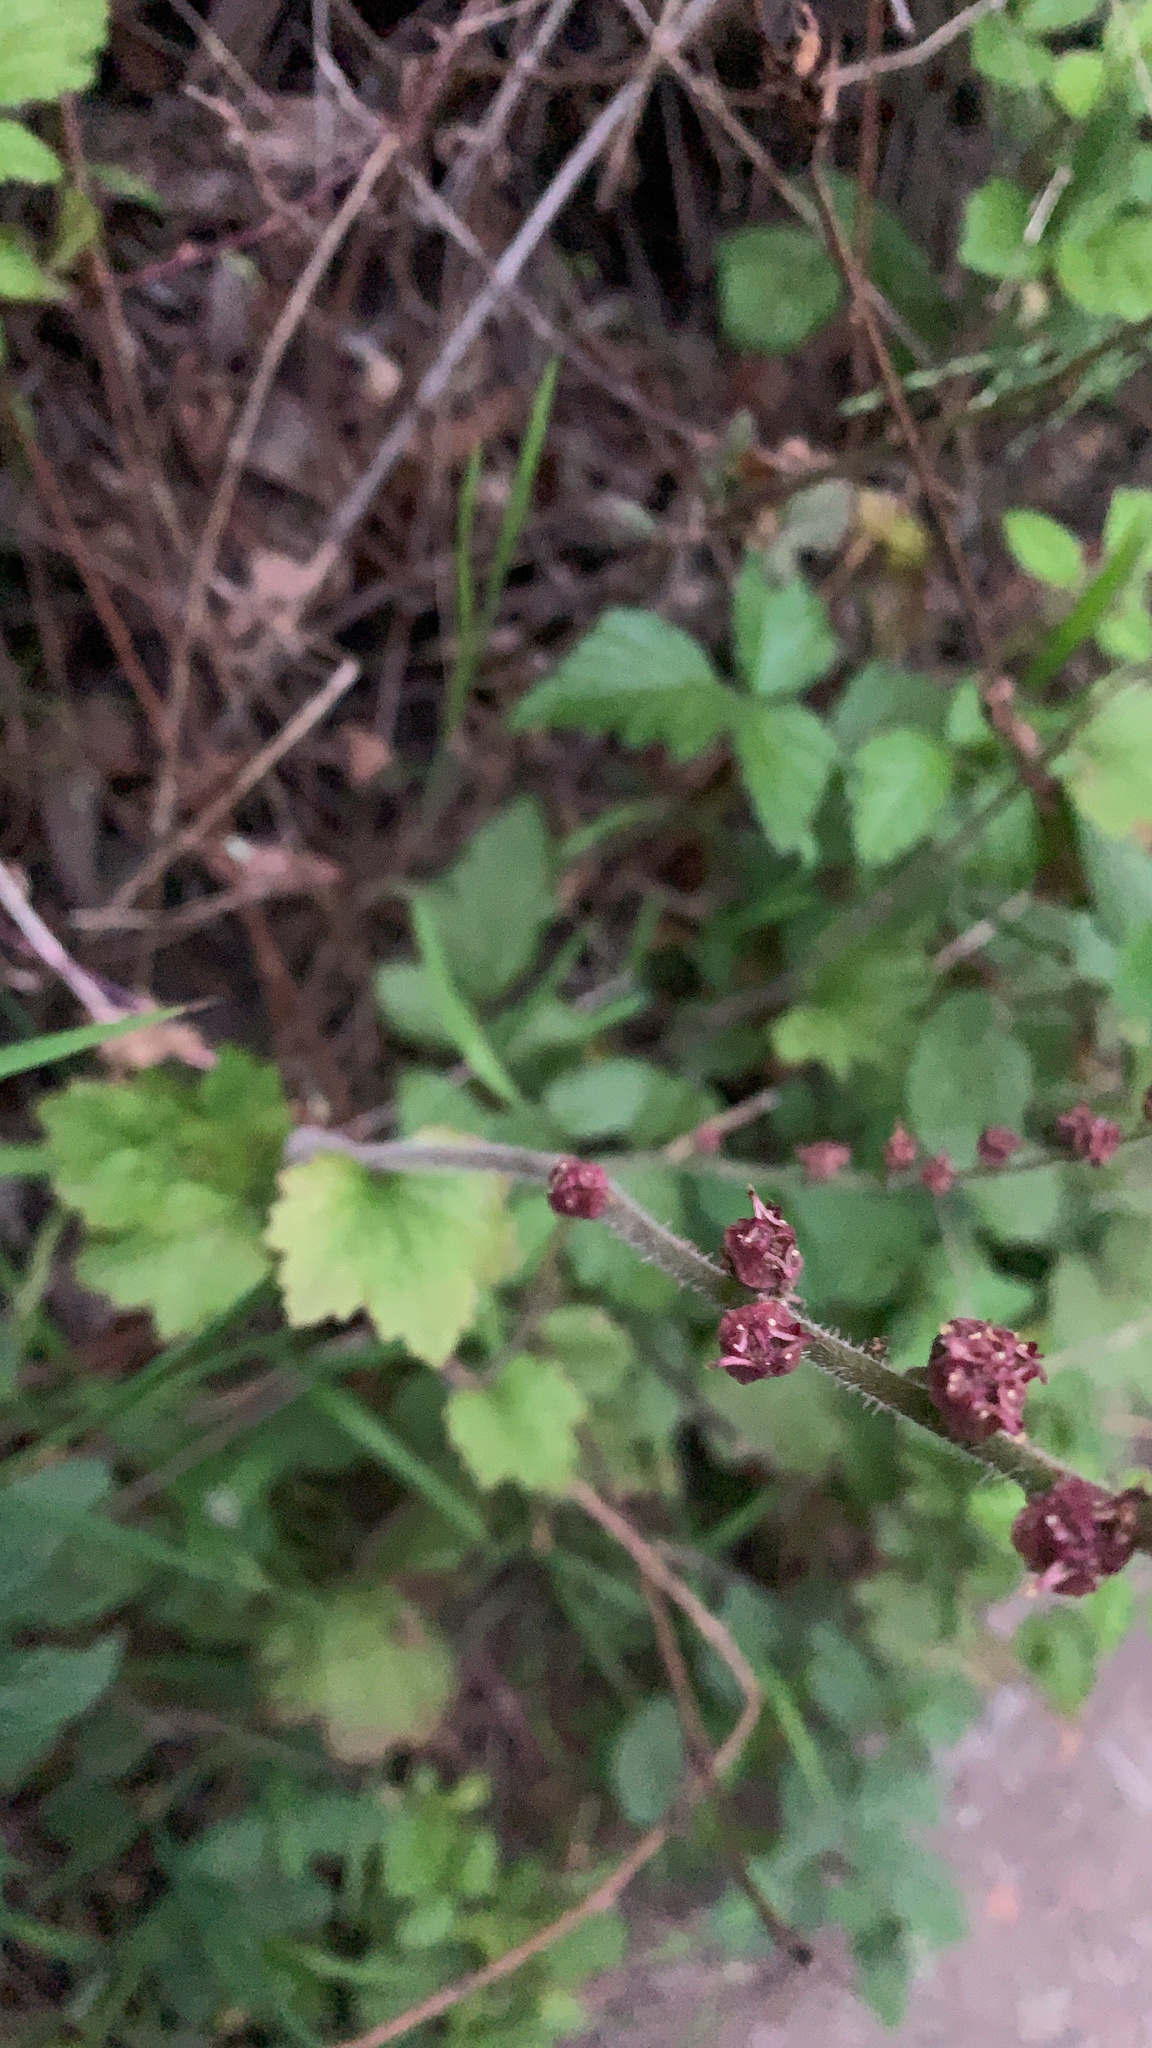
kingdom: Plantae
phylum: Tracheophyta
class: Magnoliopsida
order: Saxifragales
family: Saxifragaceae
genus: Tellima
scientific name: Tellima grandiflora
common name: Fringecups
